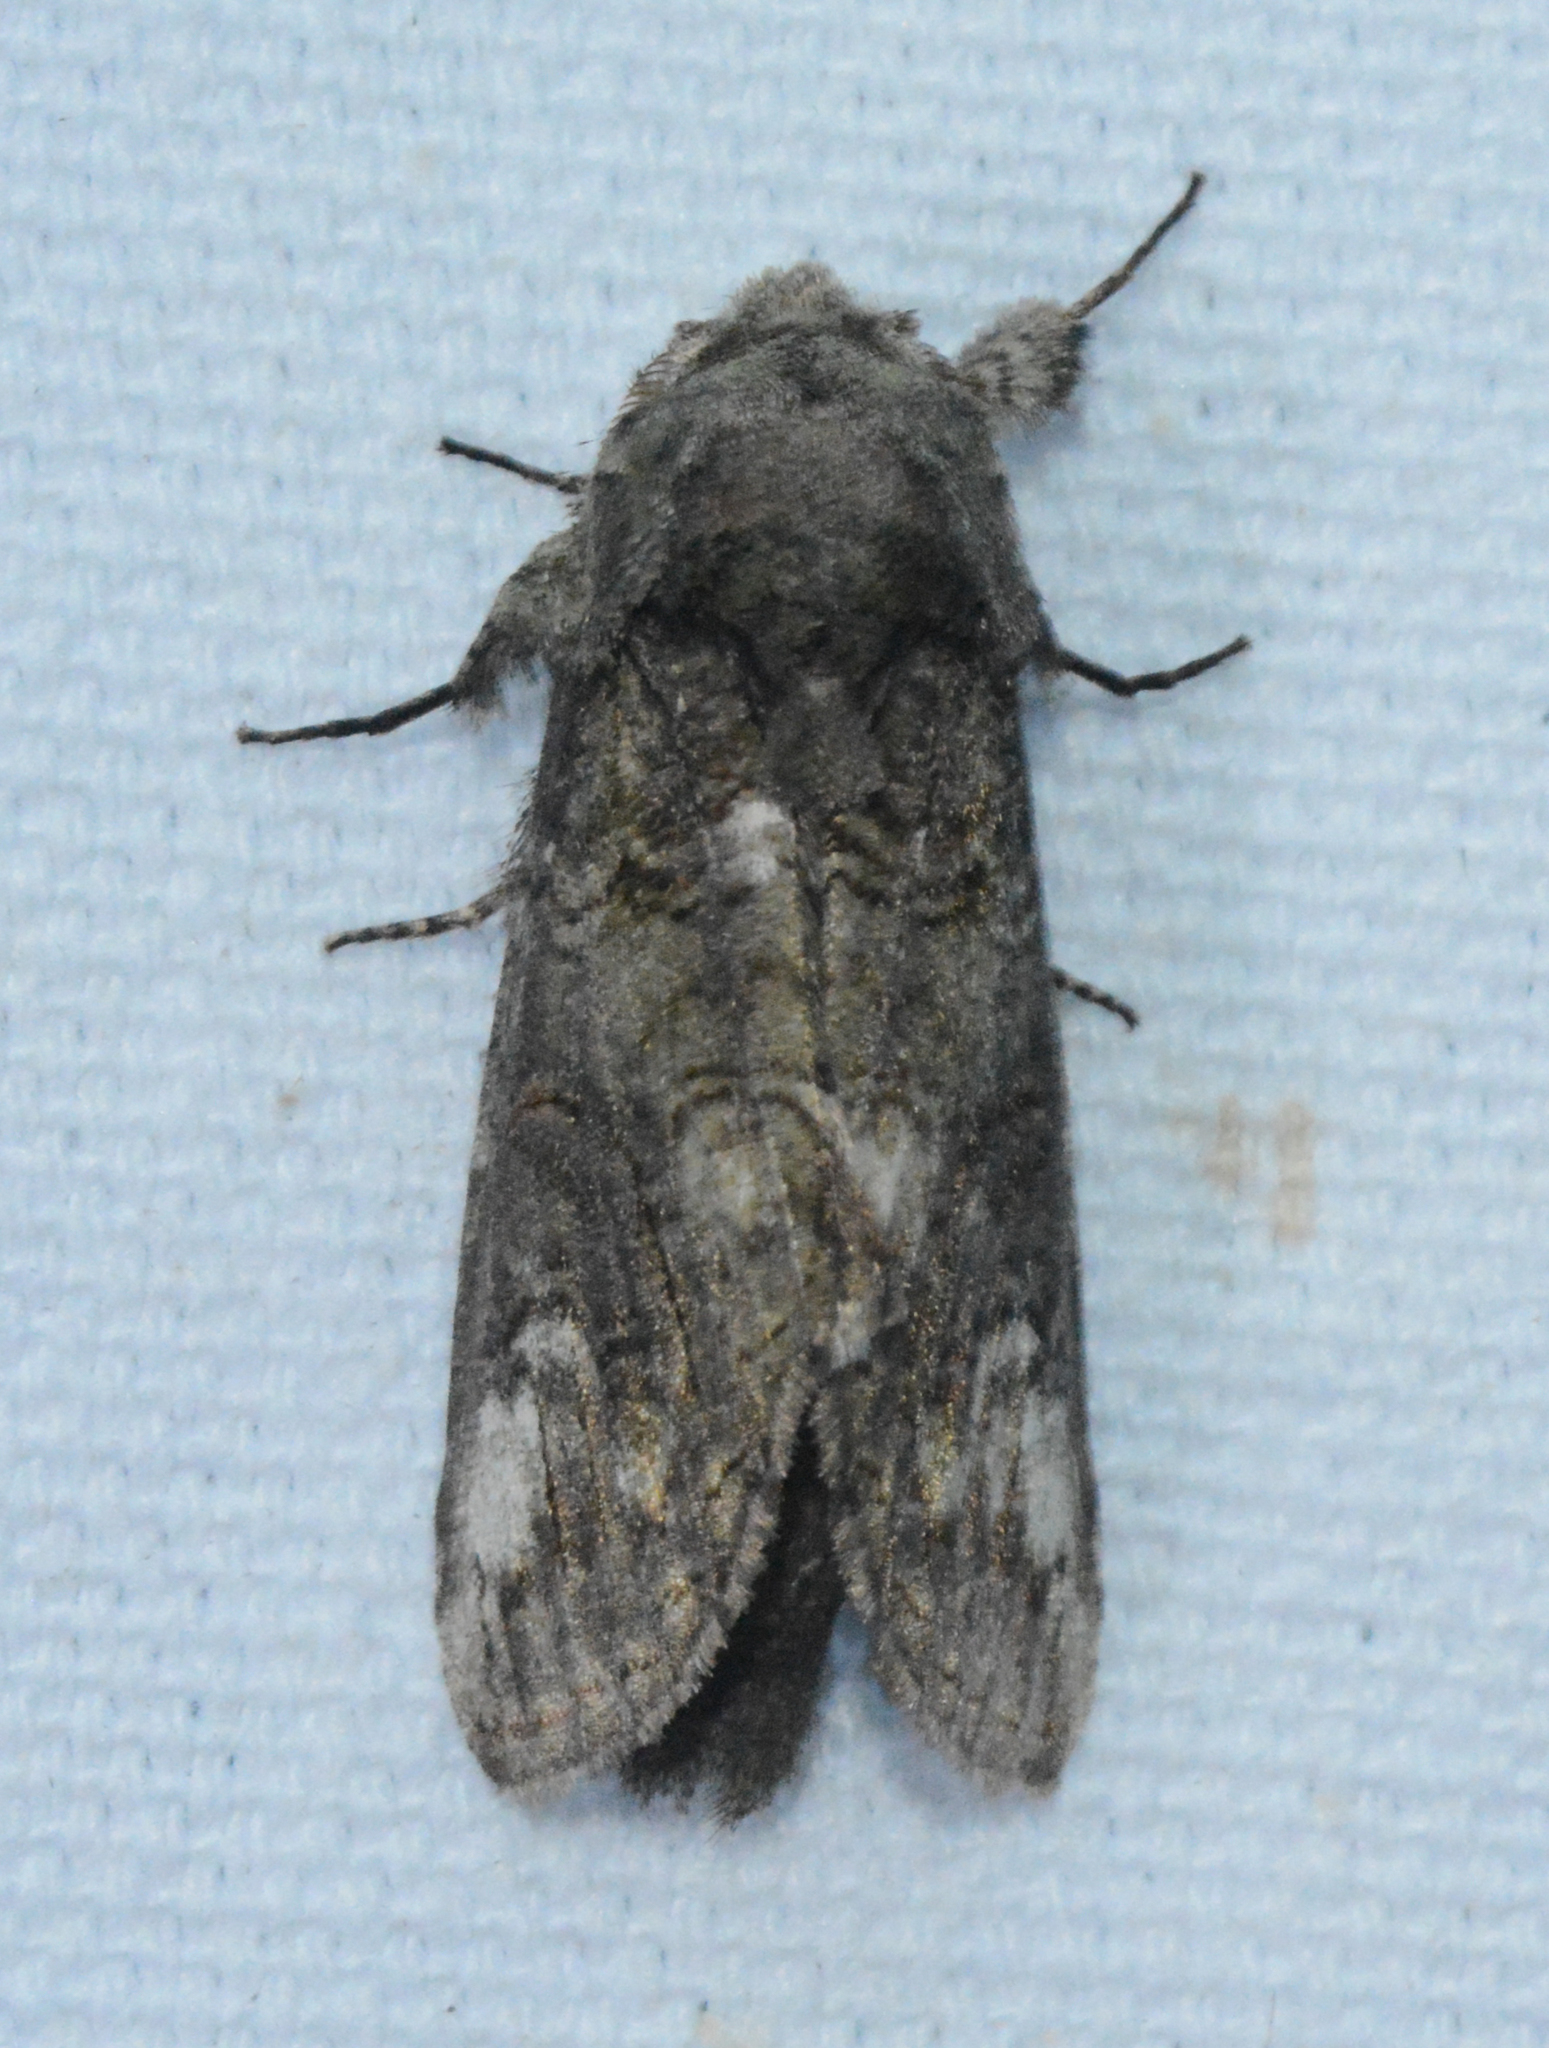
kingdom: Animalia
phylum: Arthropoda
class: Insecta
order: Lepidoptera
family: Notodontidae
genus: Heterocampa
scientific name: Heterocampa obliqua
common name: Oblique heterocampa
